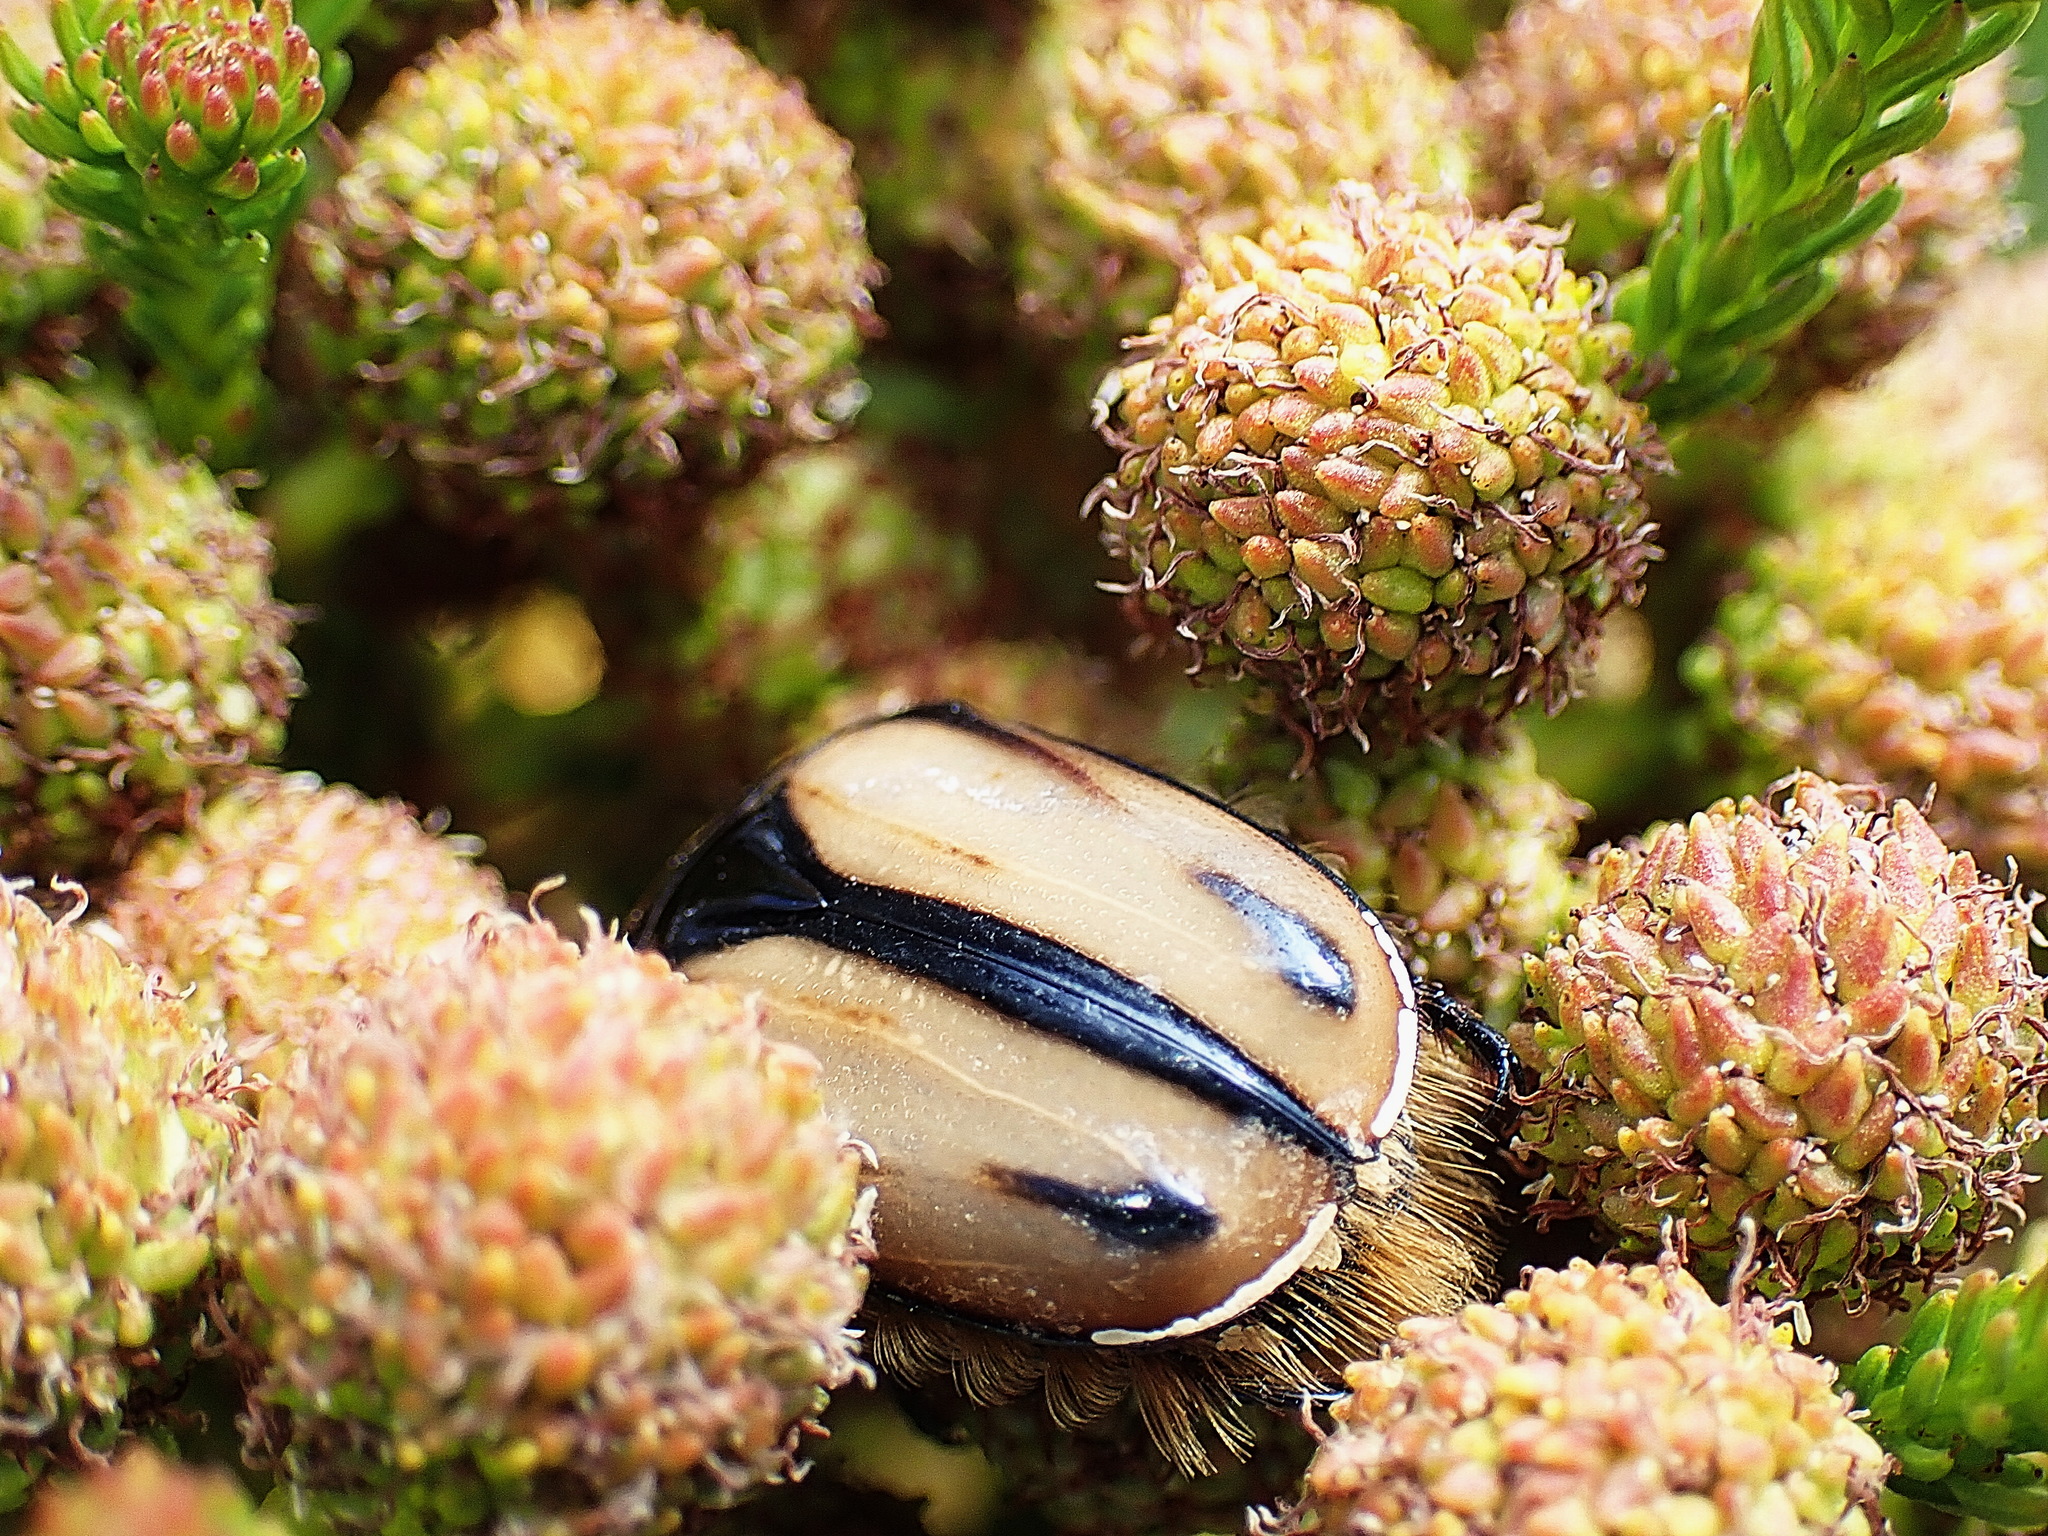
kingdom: Animalia
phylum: Arthropoda
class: Insecta
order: Coleoptera
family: Scarabaeidae
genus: Trichostetha
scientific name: Trichostetha signata
